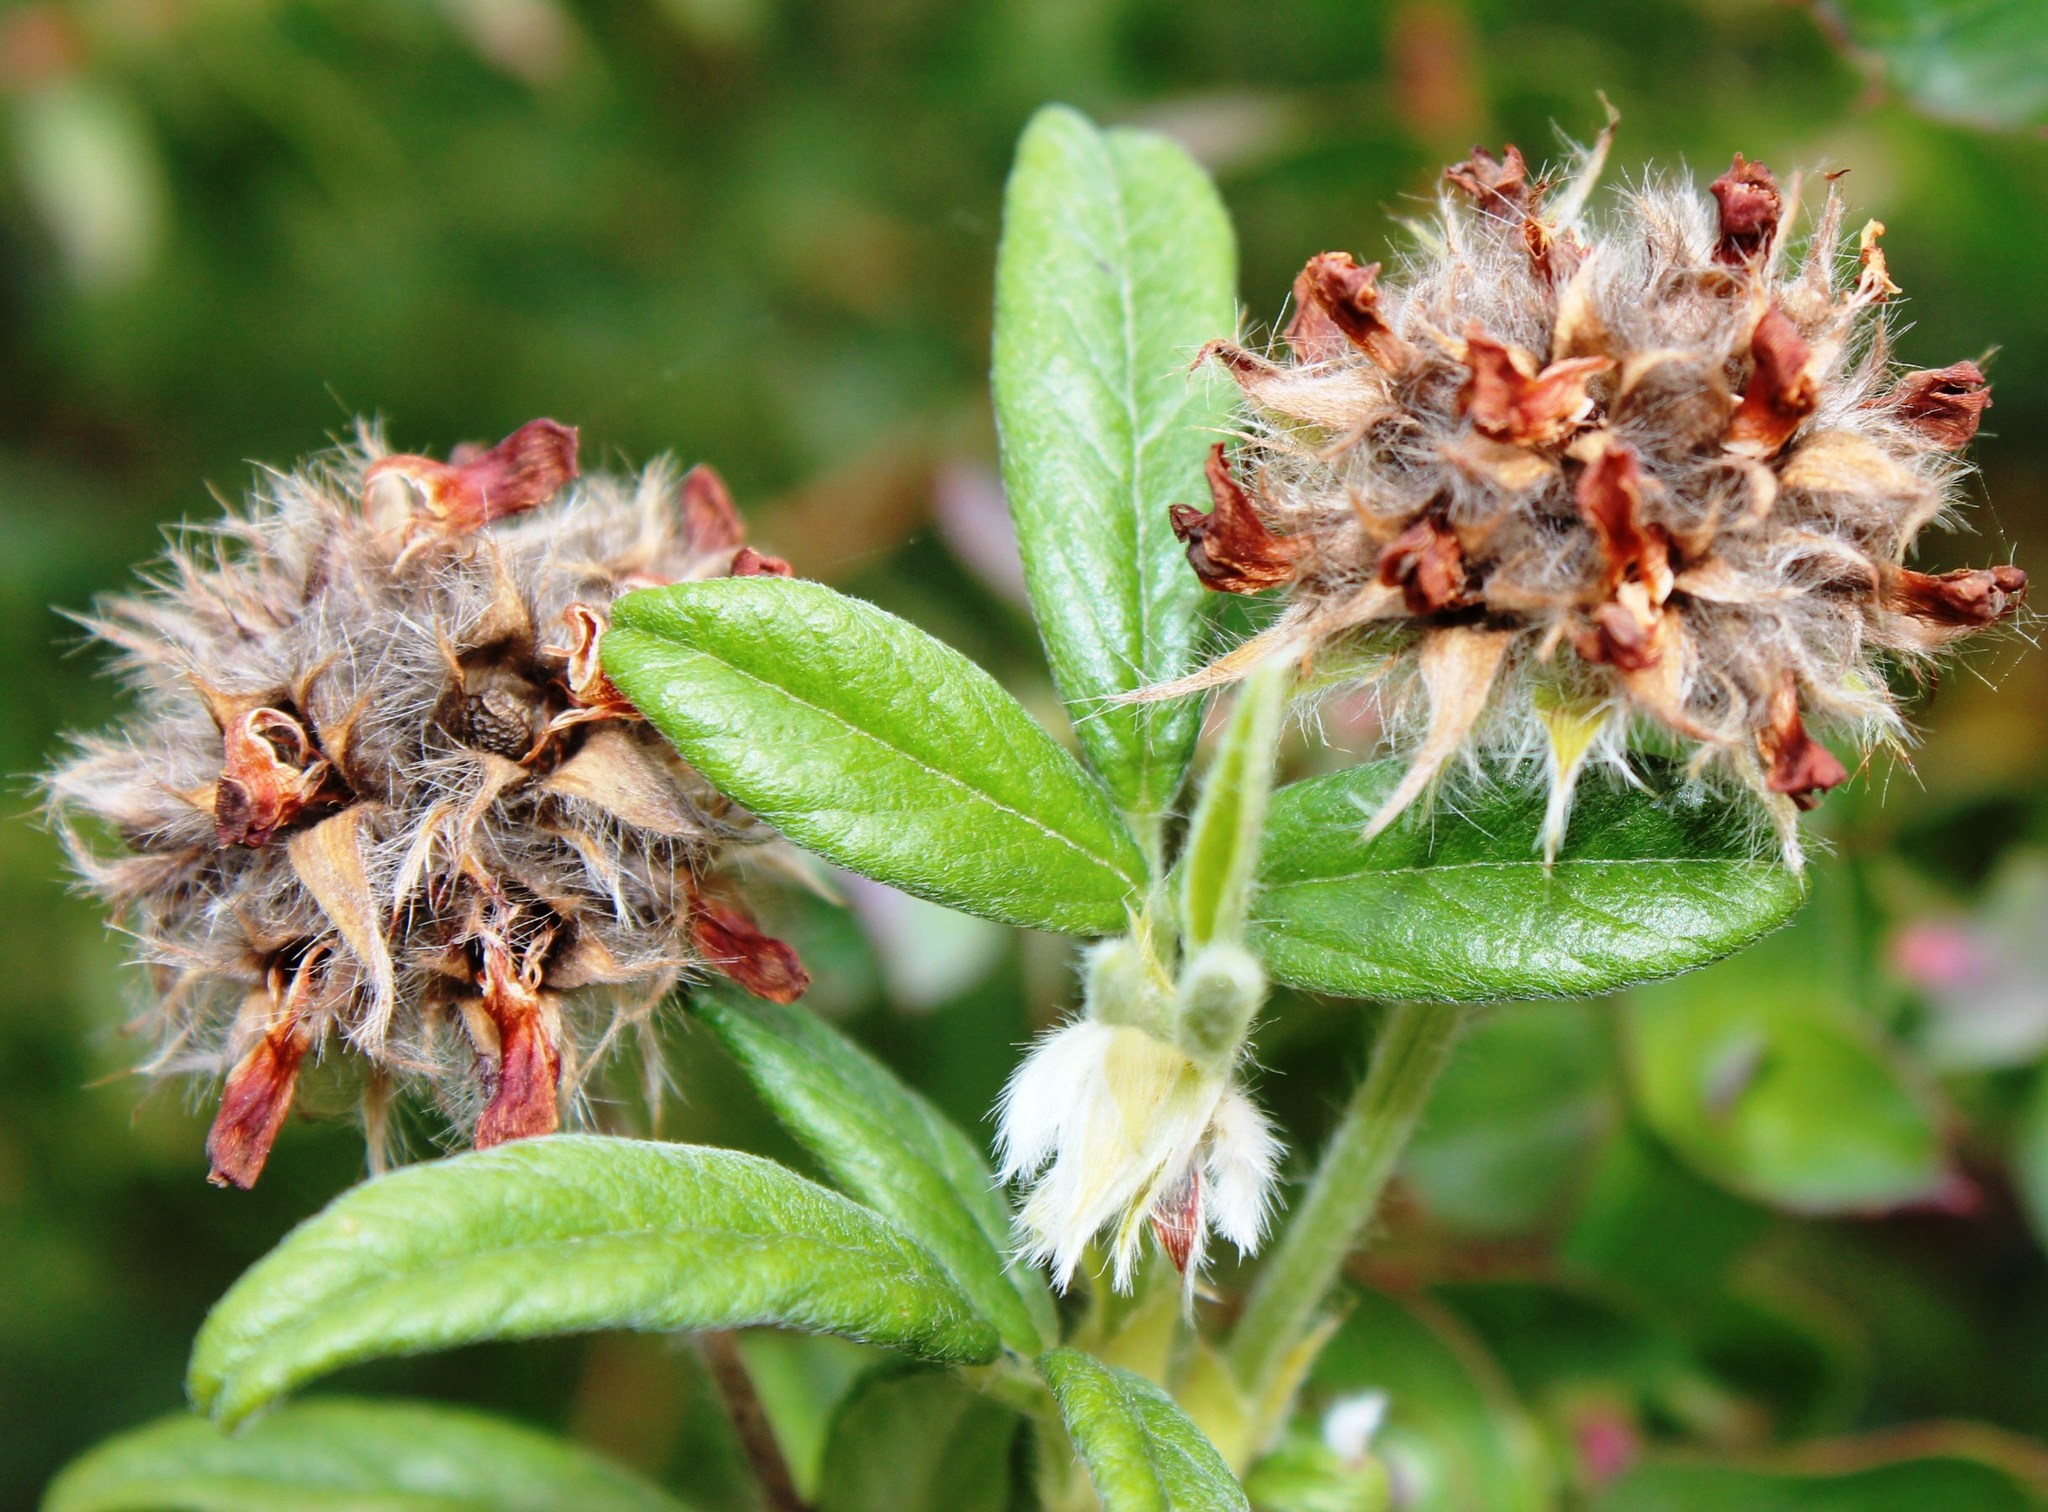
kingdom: Plantae
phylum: Tracheophyta
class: Magnoliopsida
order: Fabales
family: Fabaceae
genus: Psoralea
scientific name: Psoralea sericea
